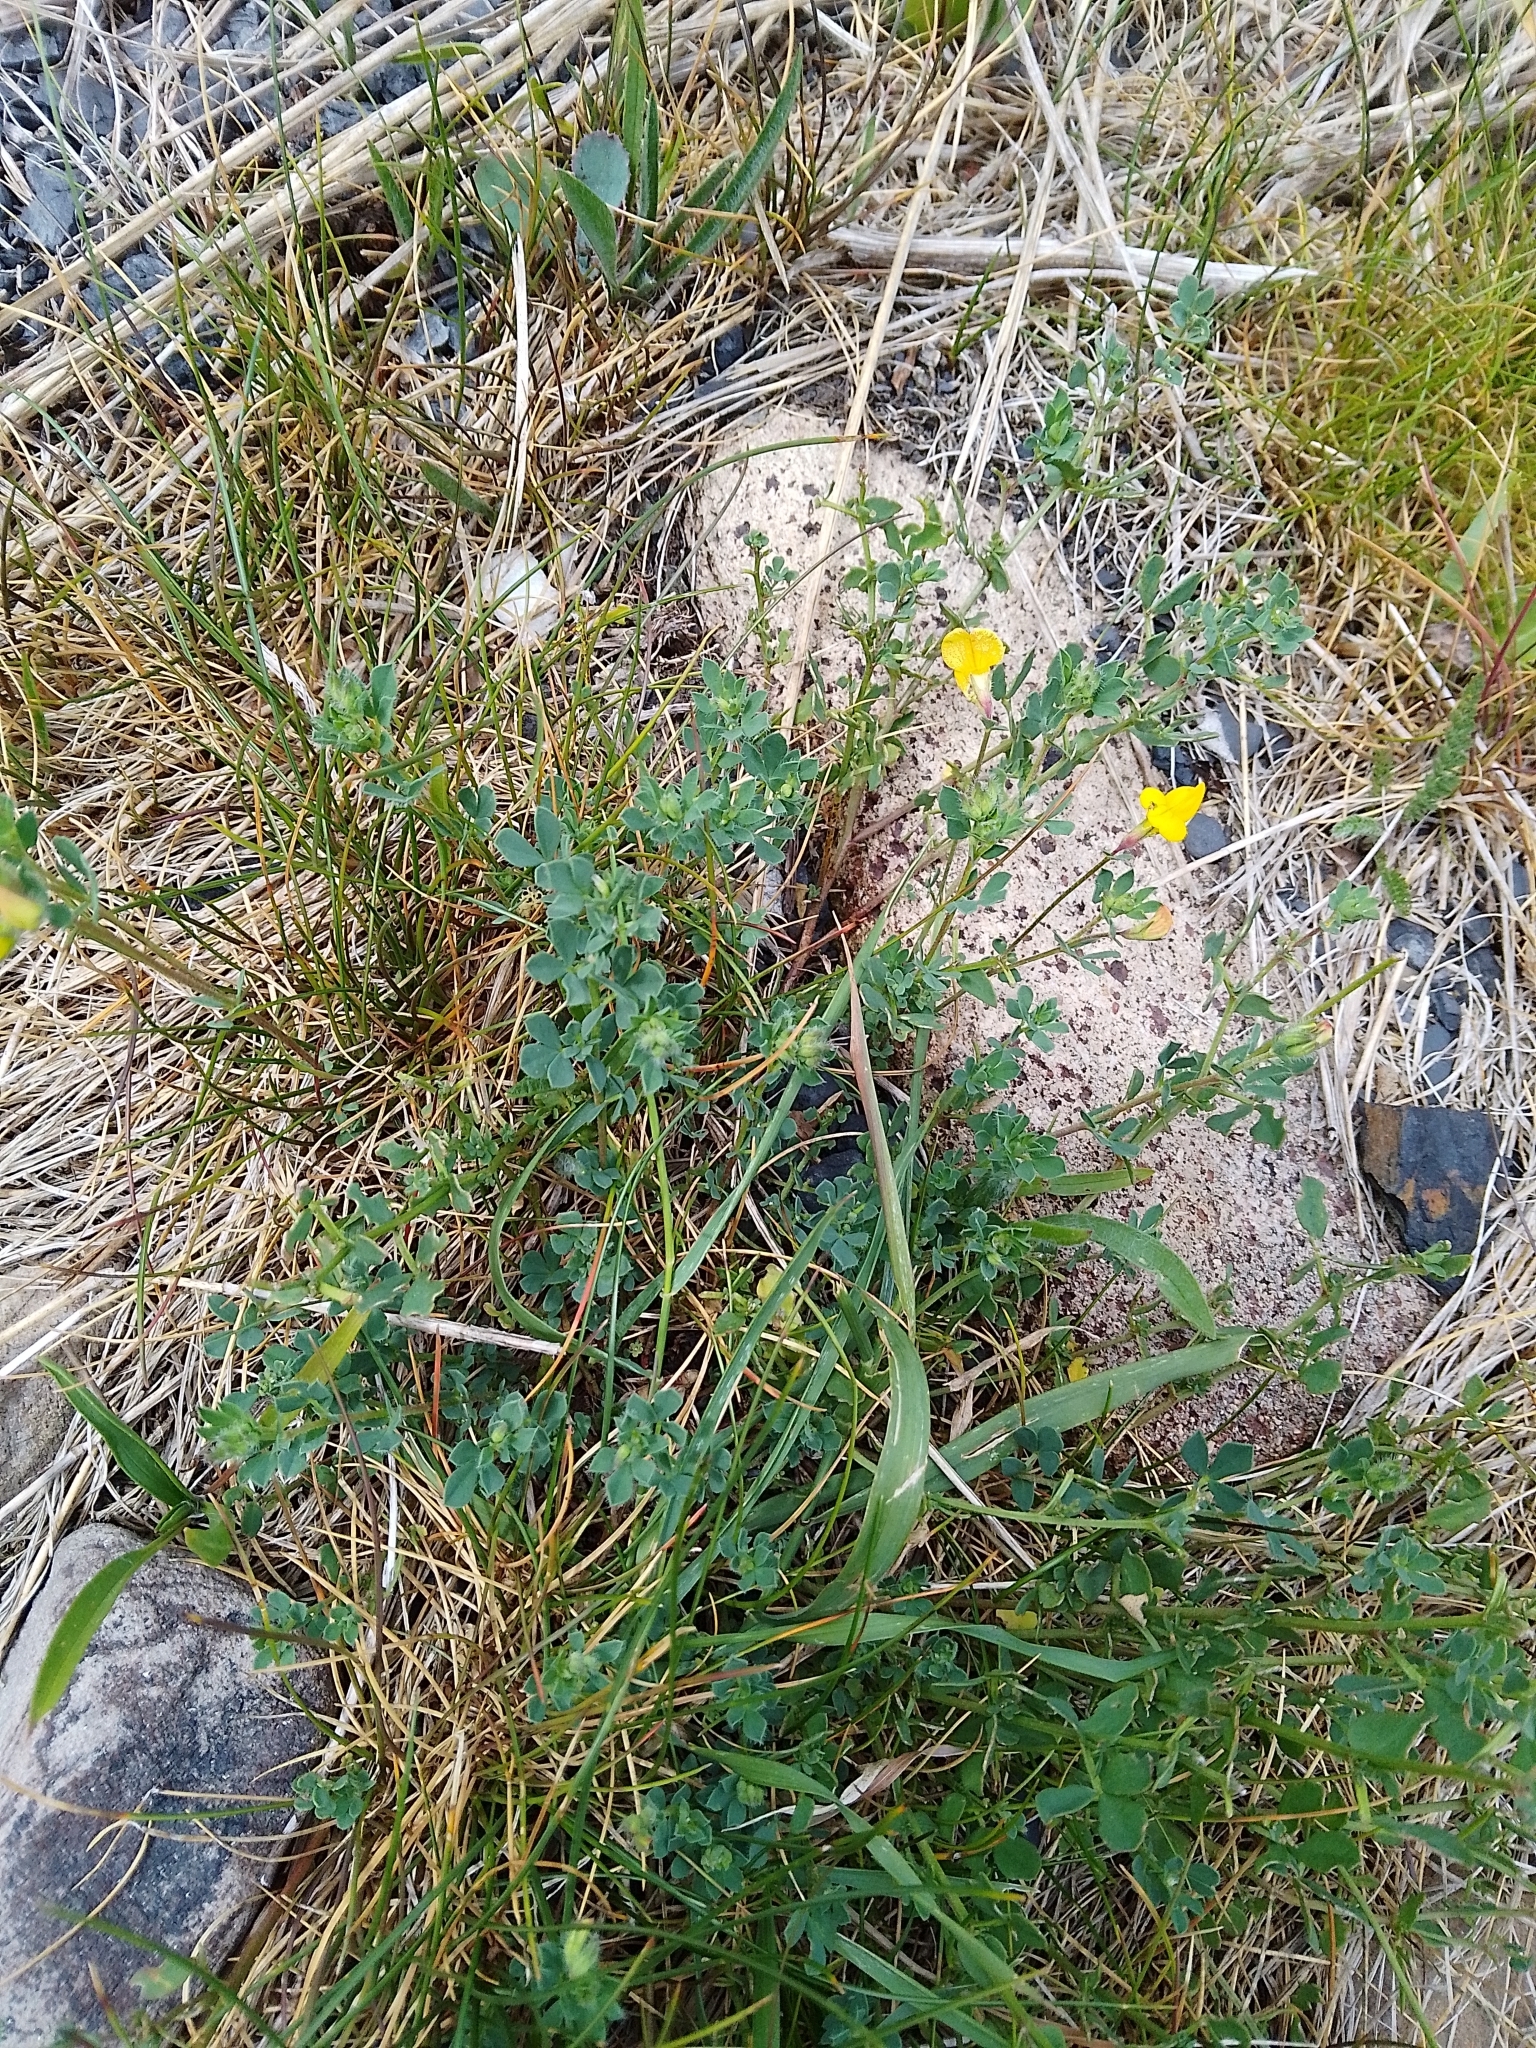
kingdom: Plantae
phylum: Tracheophyta
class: Magnoliopsida
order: Fabales
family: Fabaceae
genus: Lotus
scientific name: Lotus corniculatus
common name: Common bird's-foot-trefoil
